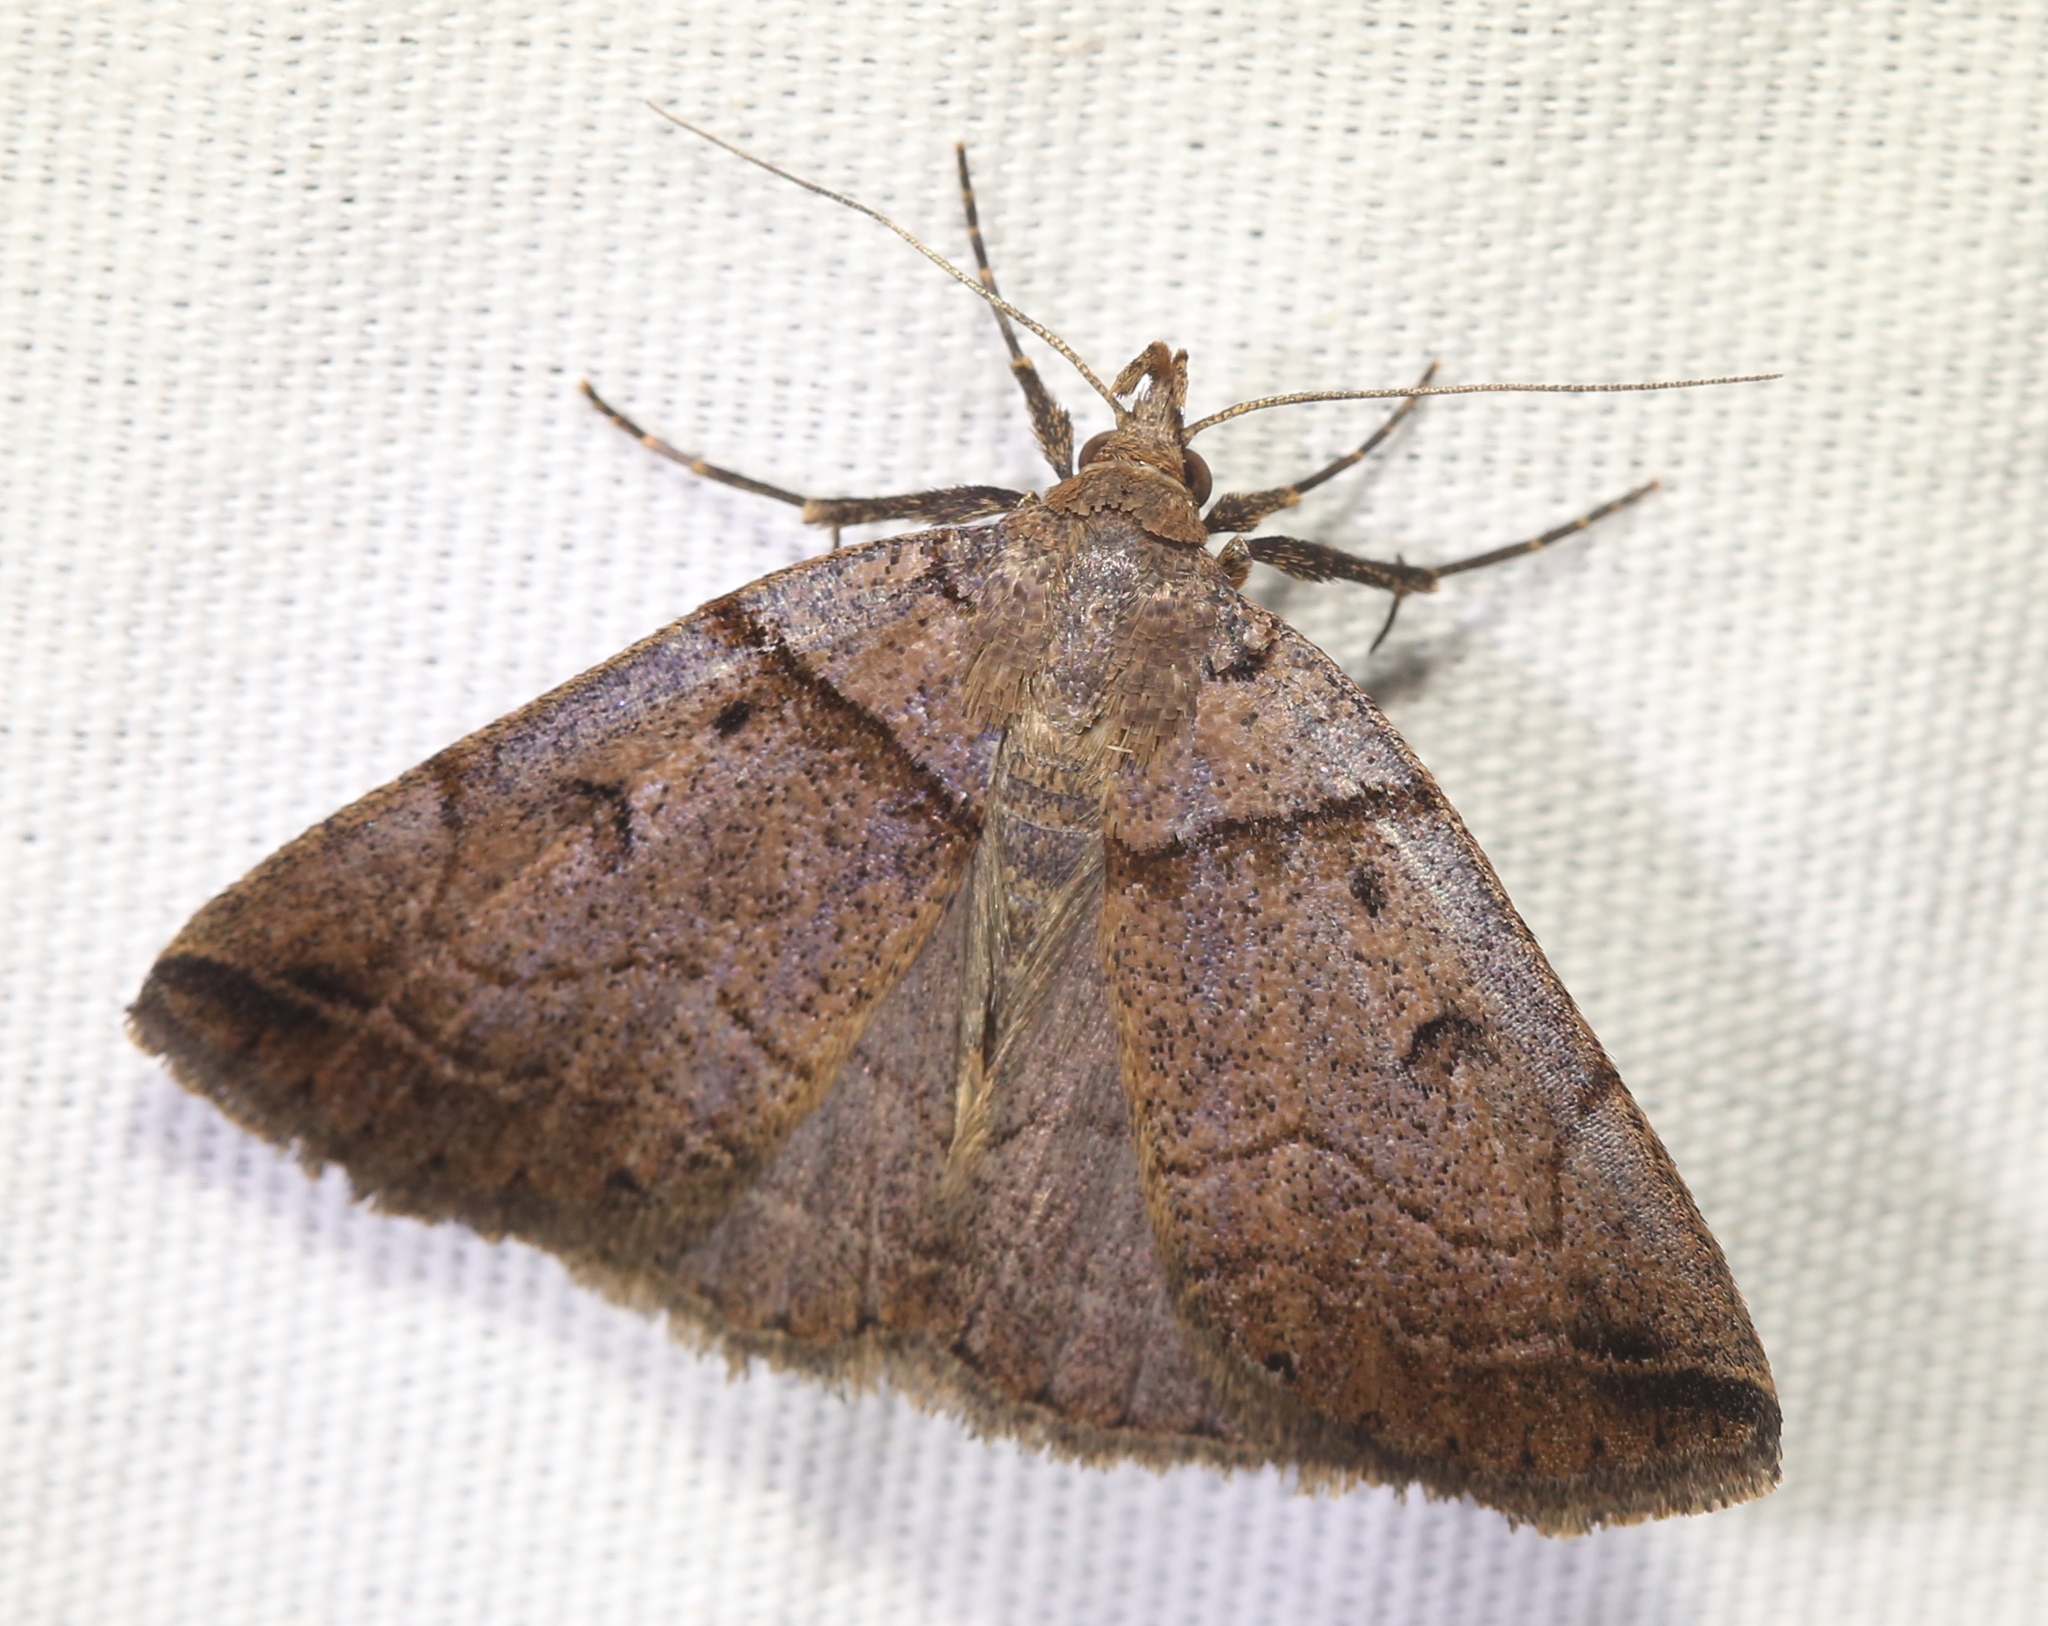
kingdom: Animalia
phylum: Arthropoda
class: Insecta
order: Lepidoptera
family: Erebidae
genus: Zanclognatha
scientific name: Zanclognatha laevigata
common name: Variable fan-foot
